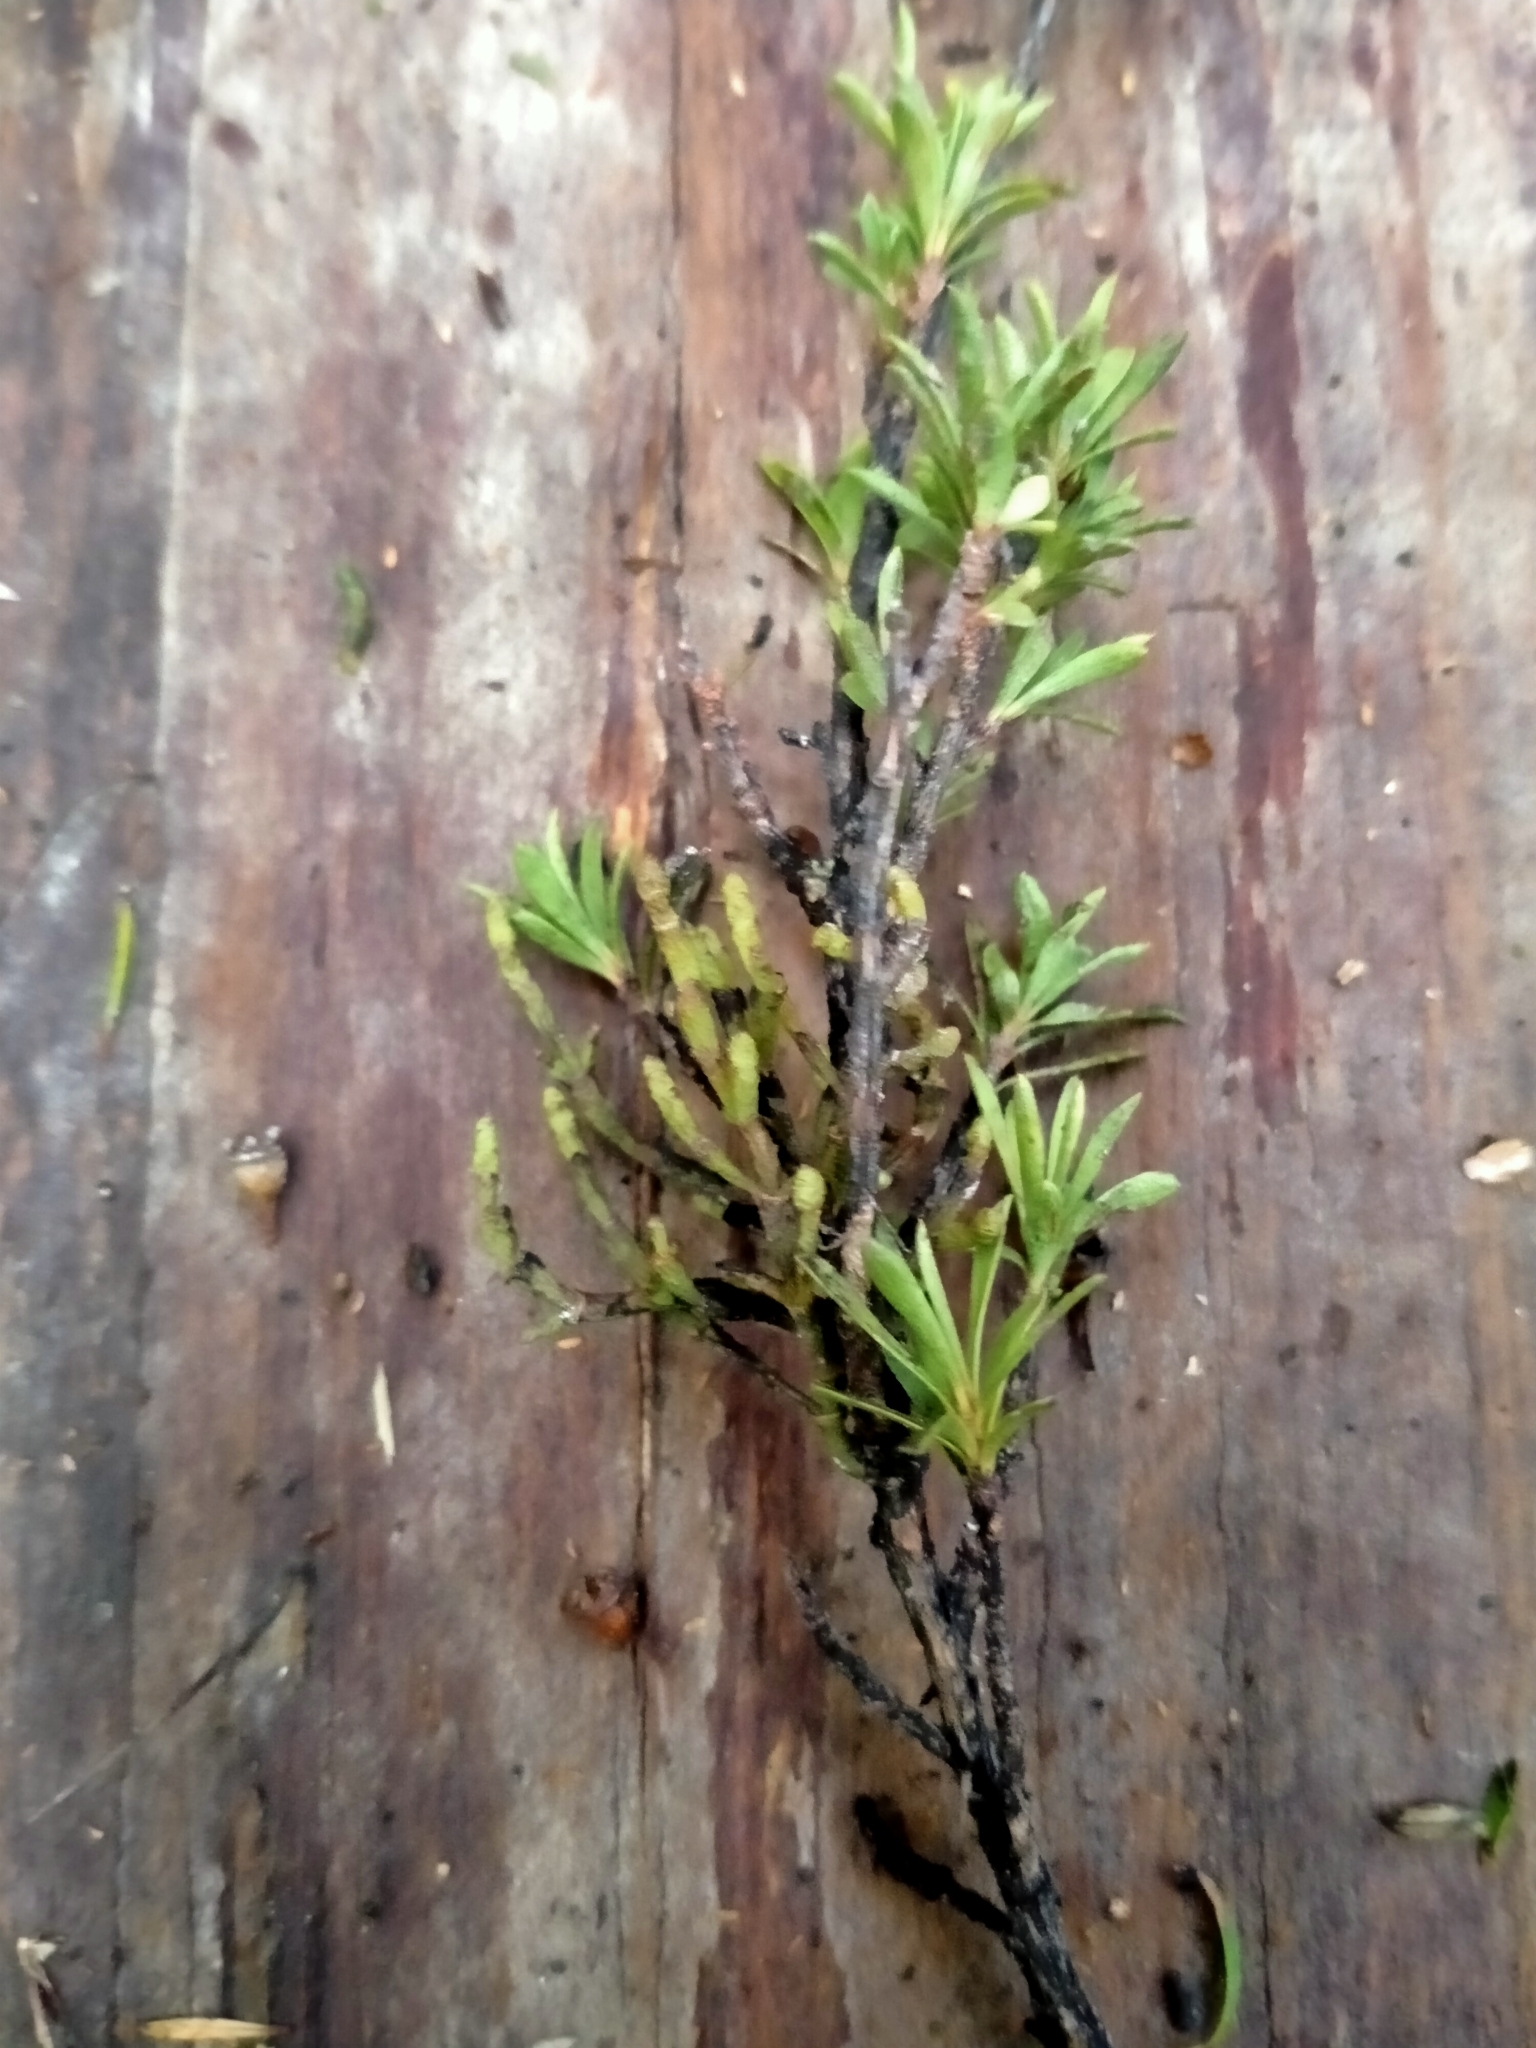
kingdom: Plantae
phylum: Tracheophyta
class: Magnoliopsida
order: Santalales
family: Viscaceae
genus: Korthalsella
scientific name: Korthalsella salicornioides
